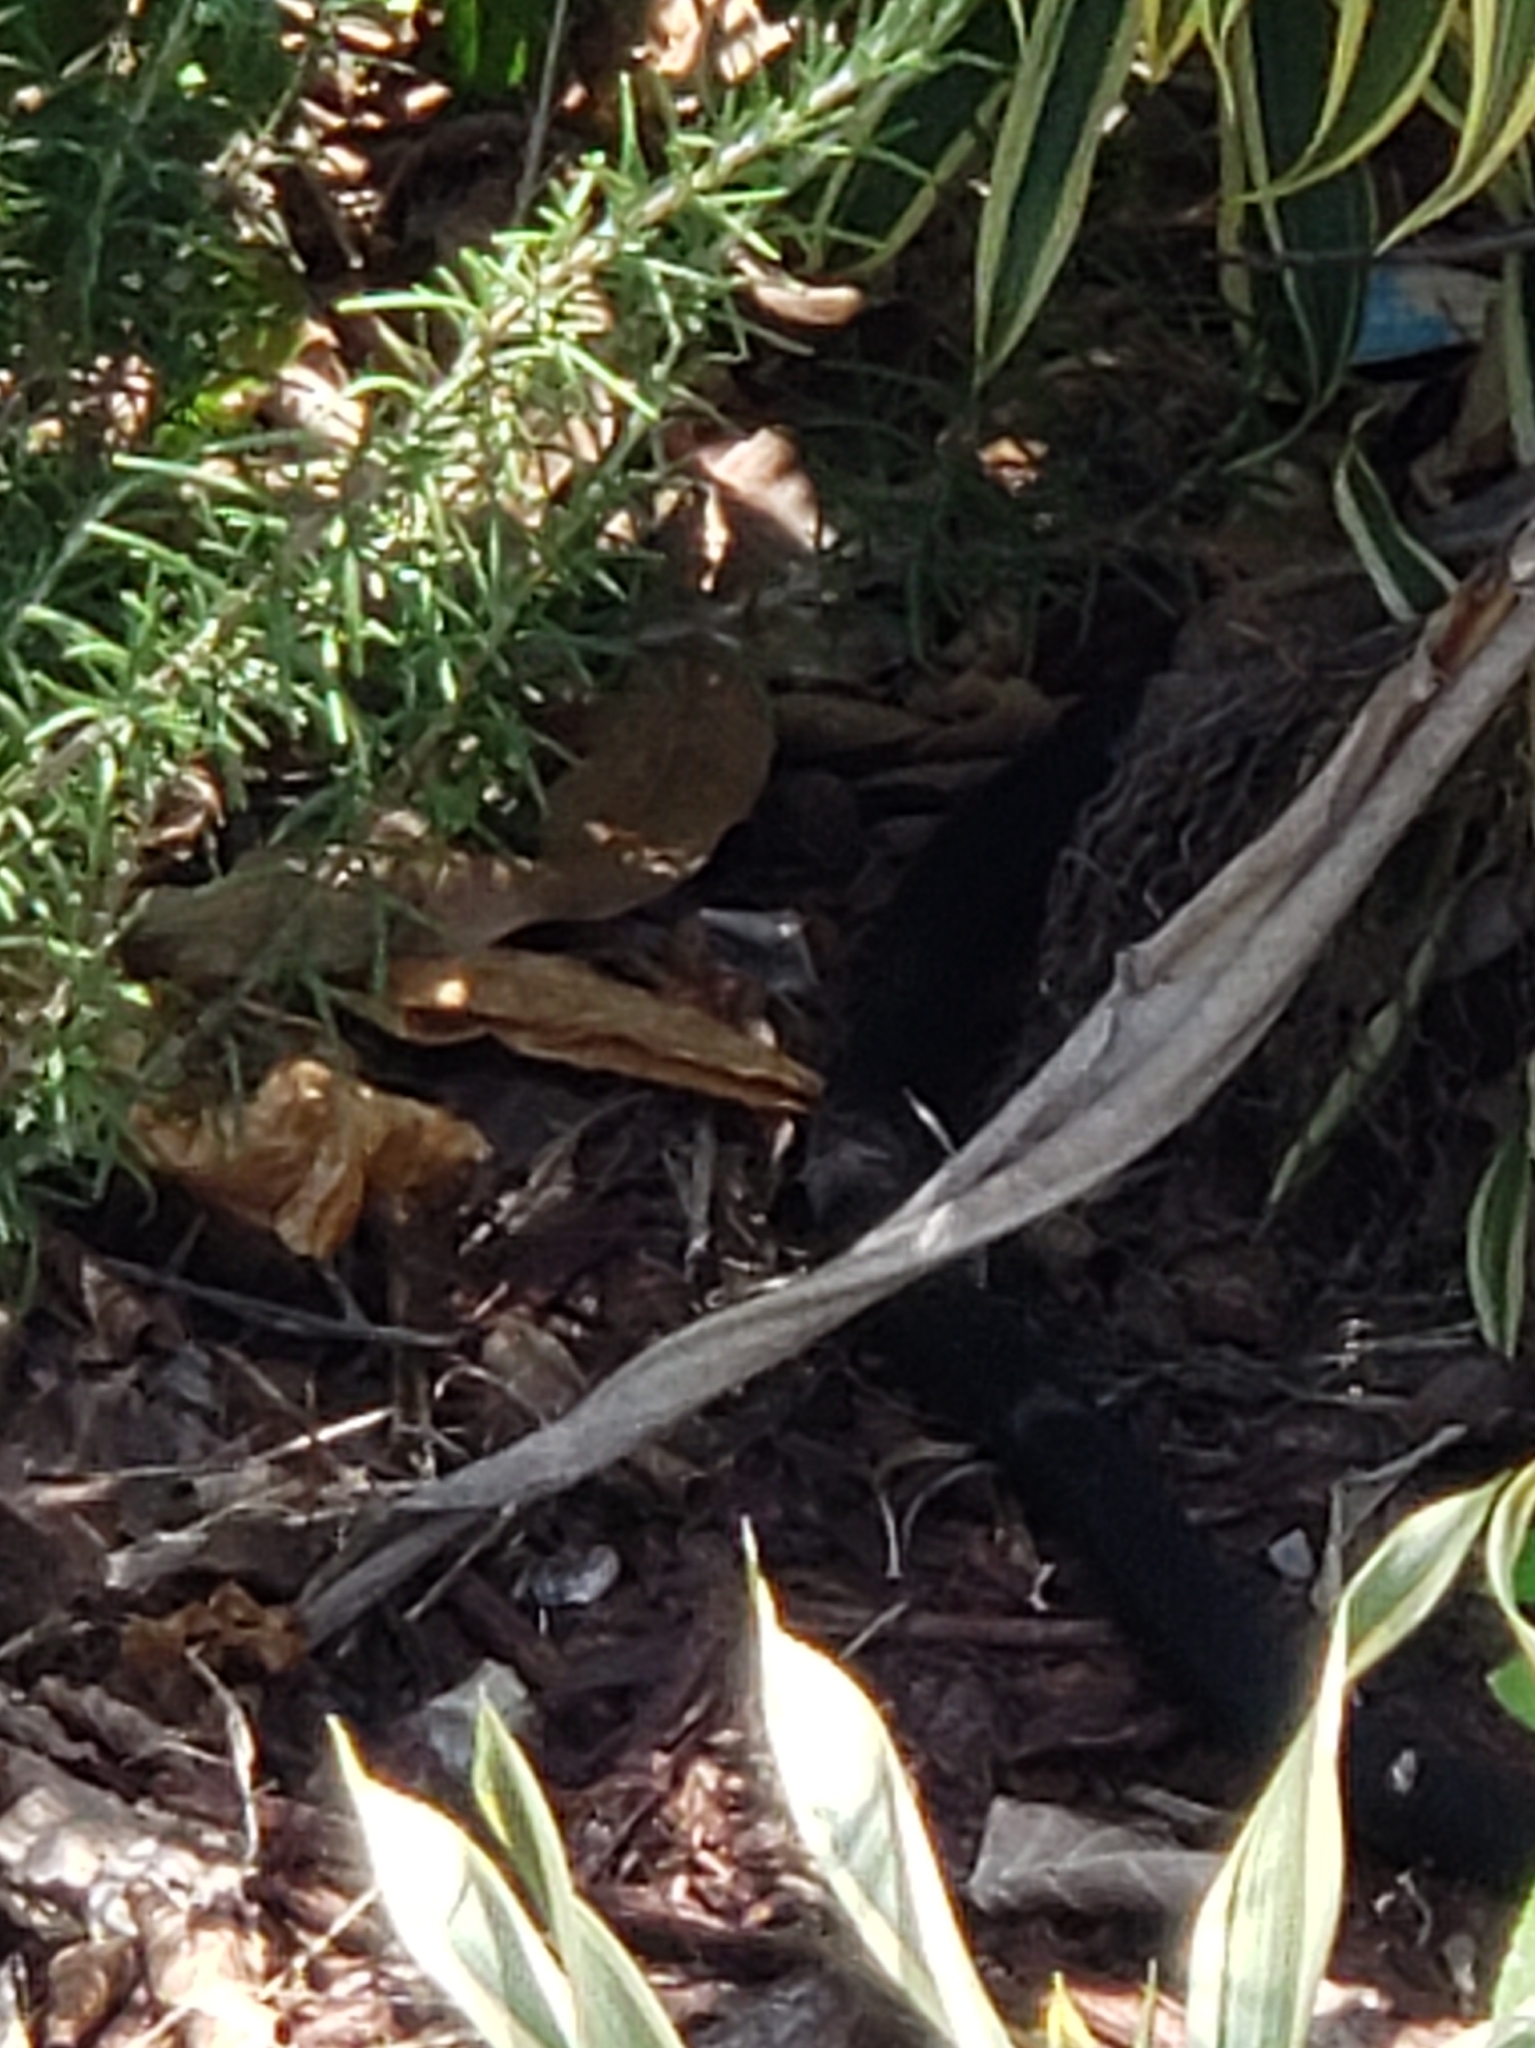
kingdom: Animalia
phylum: Chordata
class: Squamata
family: Colubridae
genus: Coluber
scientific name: Coluber constrictor
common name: Eastern racer
